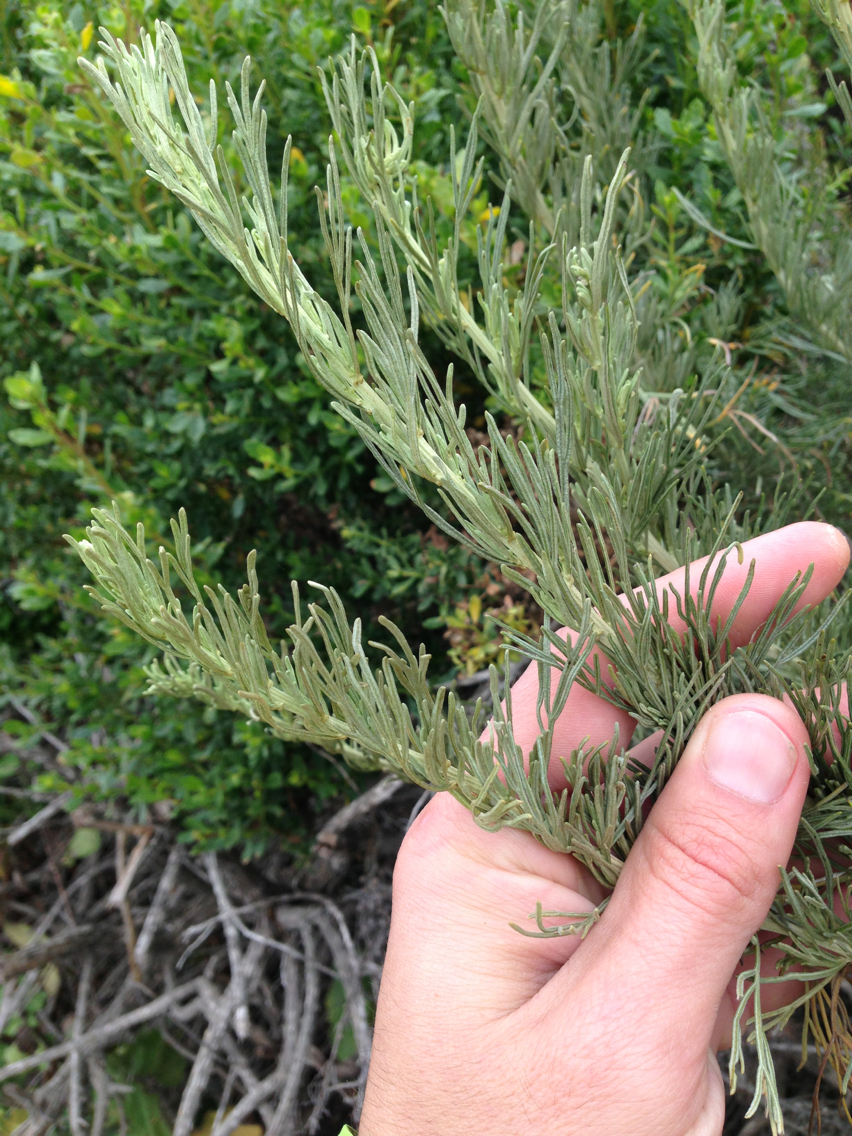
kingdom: Plantae
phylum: Tracheophyta
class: Magnoliopsida
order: Asterales
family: Asteraceae
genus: Artemisia
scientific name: Artemisia californica
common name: California sagebrush
